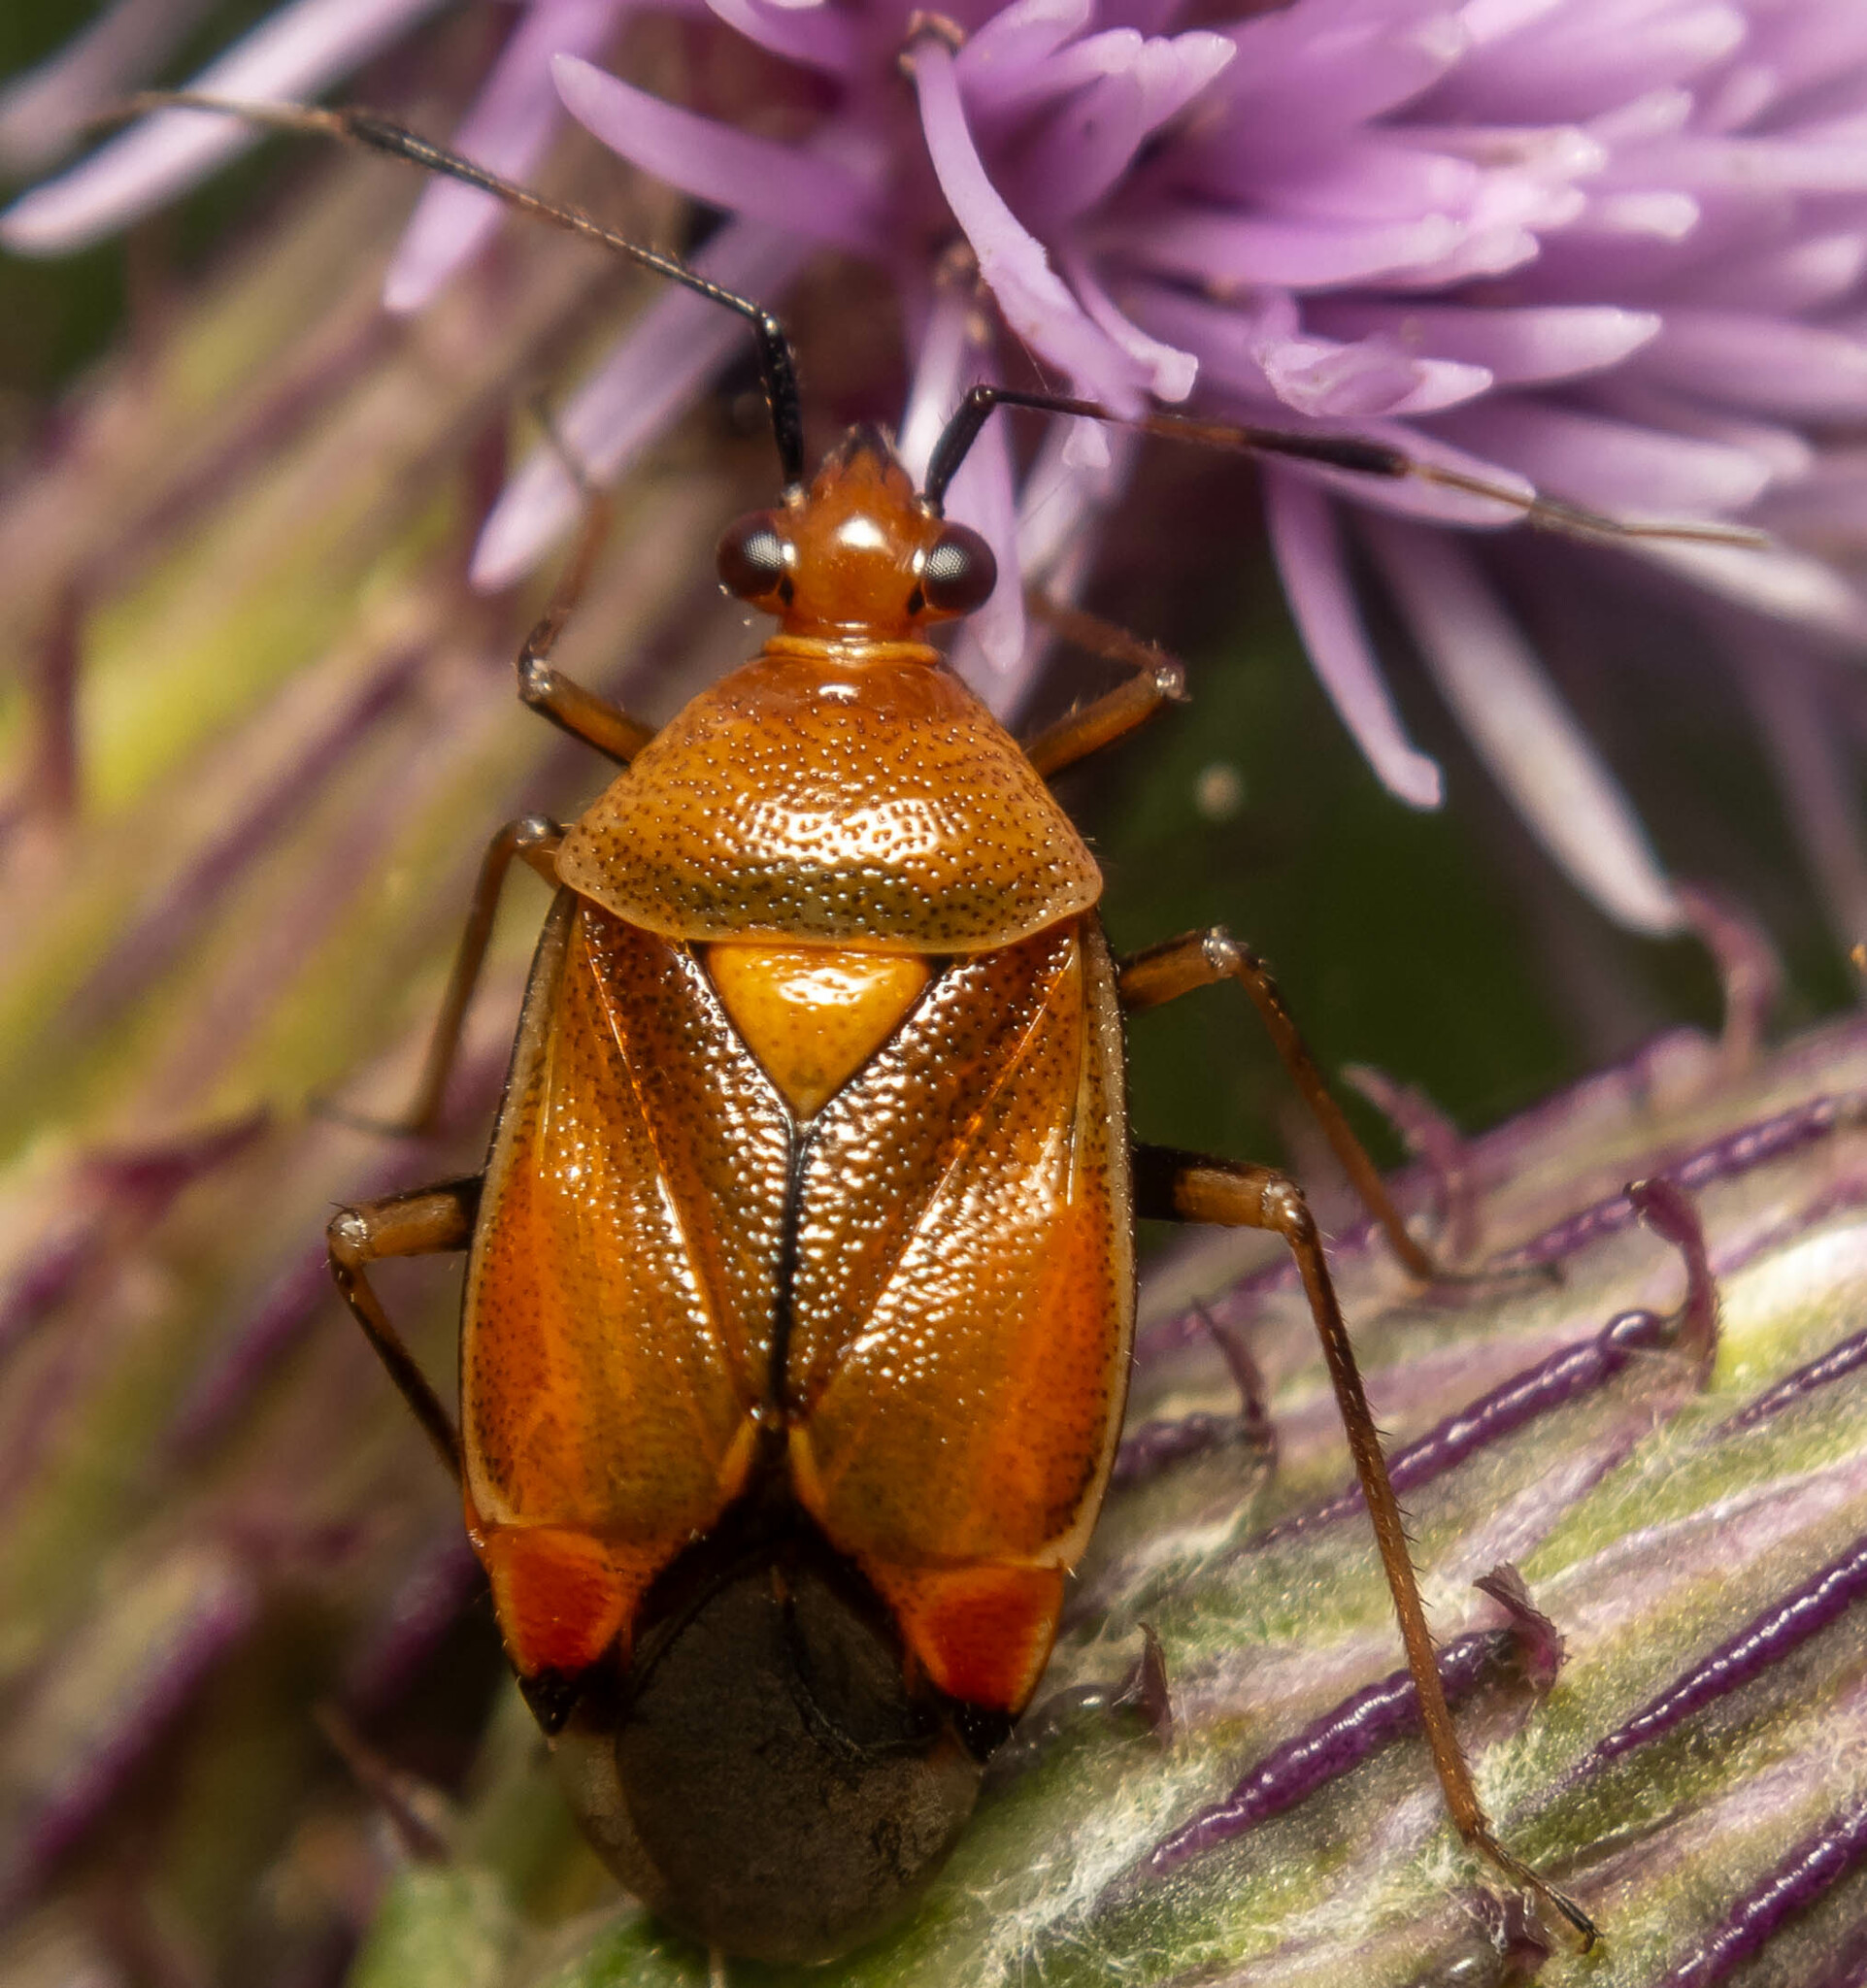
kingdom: Animalia
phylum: Arthropoda
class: Insecta
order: Hemiptera
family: Miridae
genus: Deraeocoris
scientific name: Deraeocoris ruber
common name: Plant bug
